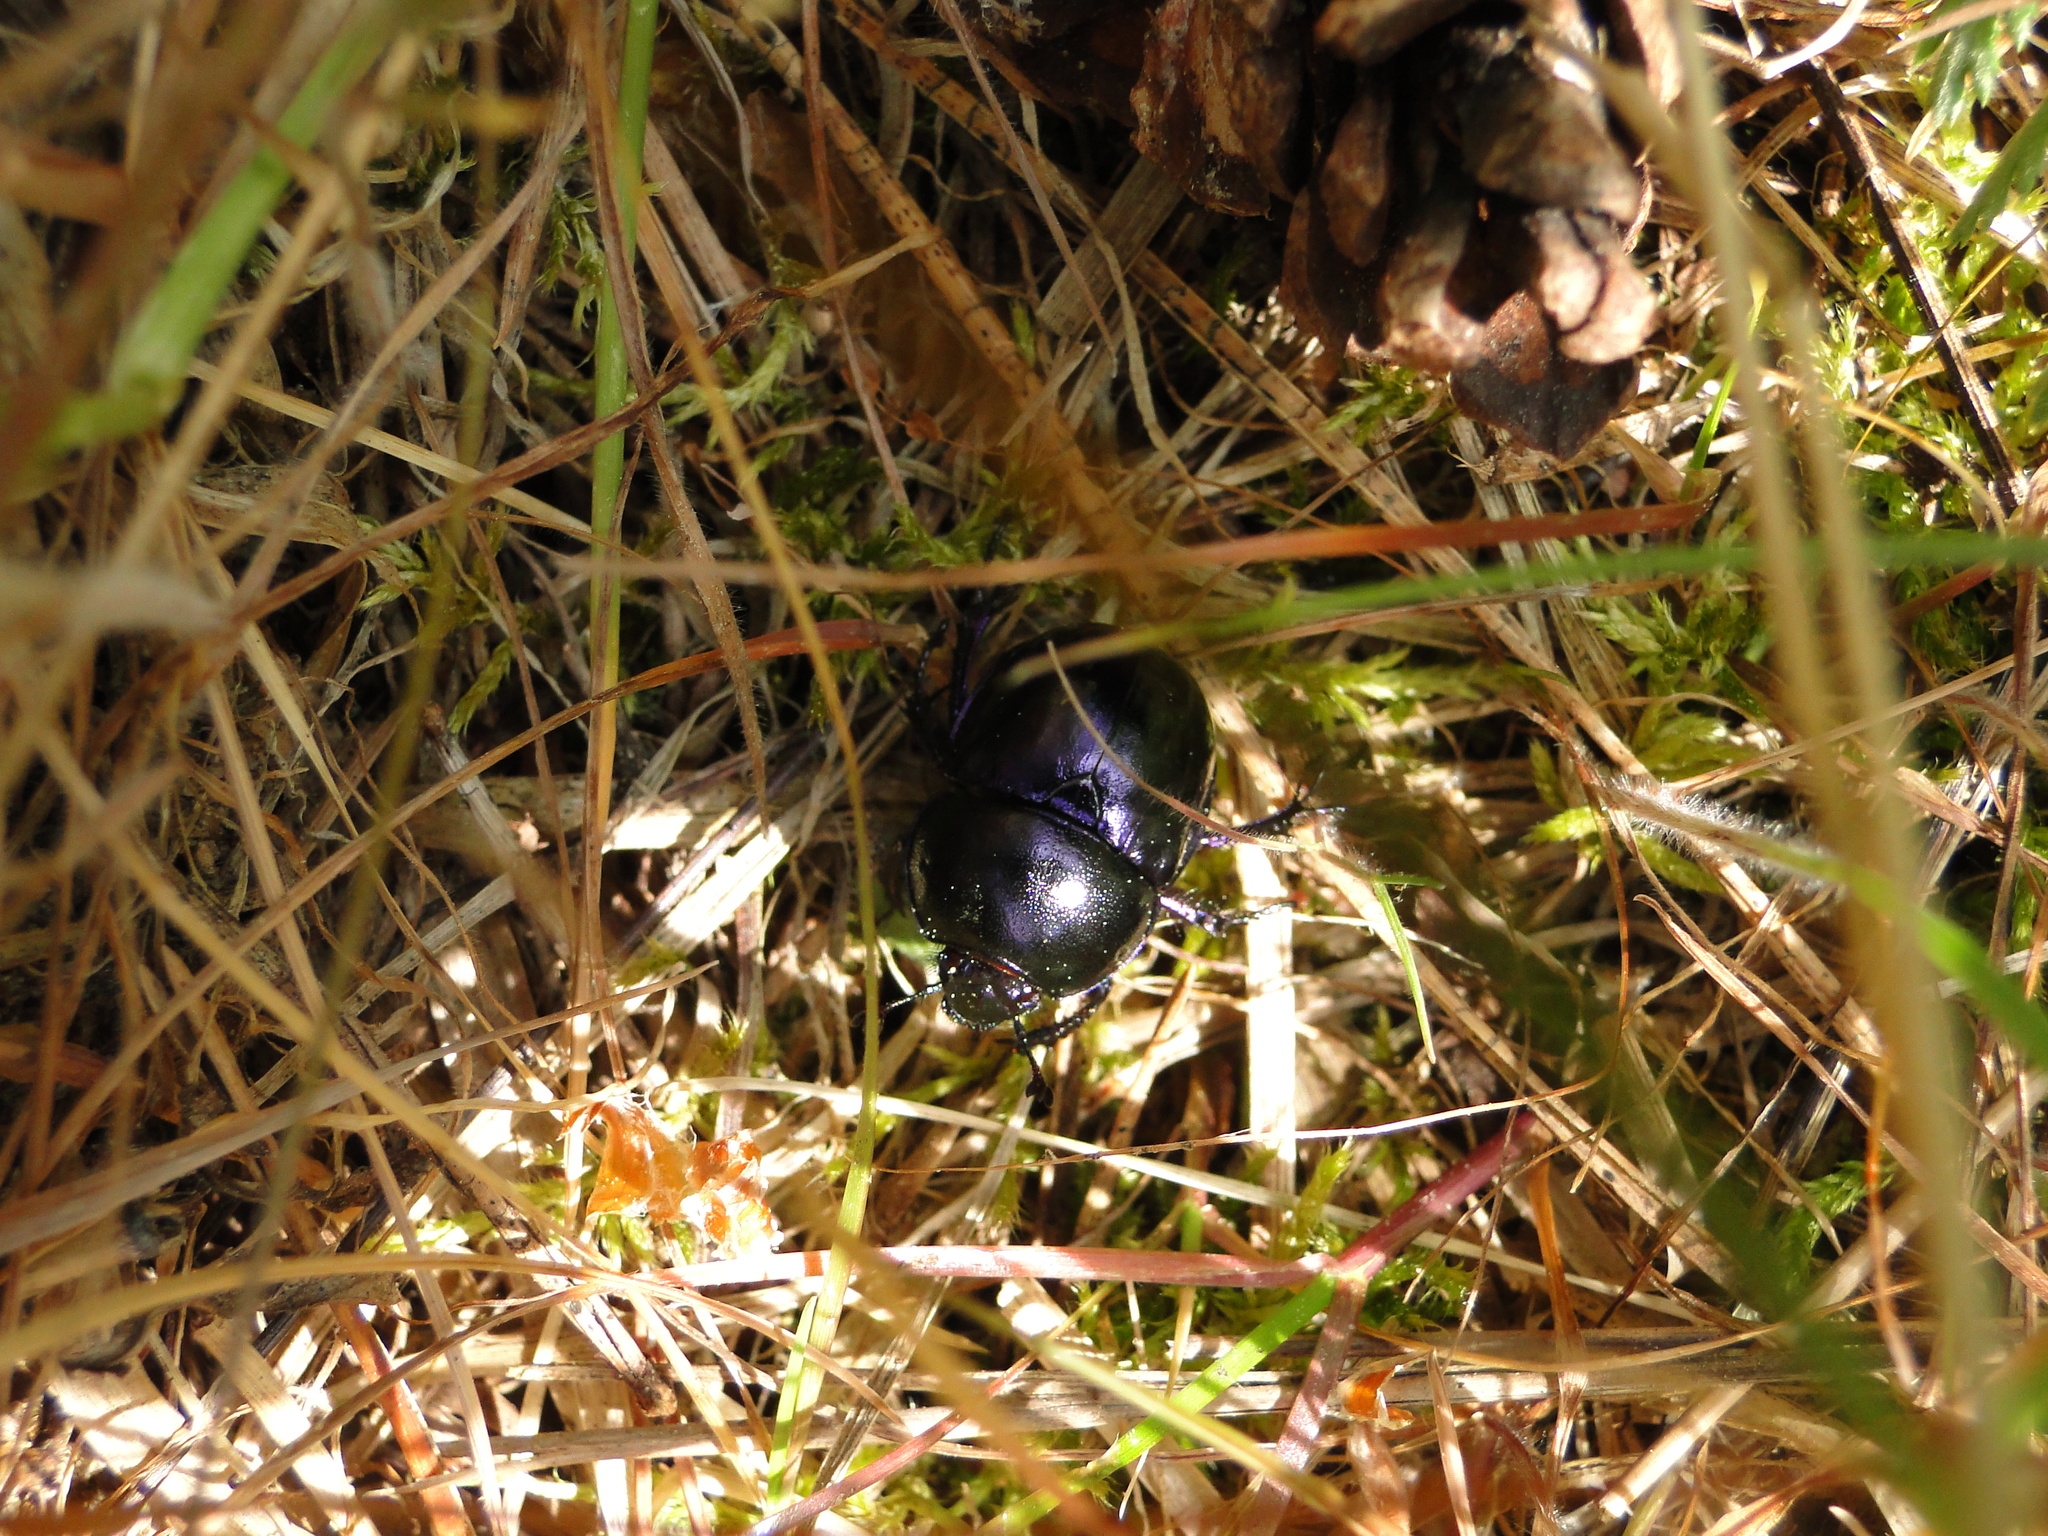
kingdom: Animalia
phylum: Arthropoda
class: Insecta
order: Coleoptera
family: Geotrupidae
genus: Trypocopris
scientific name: Trypocopris vernalis
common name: Spring dumbledor
